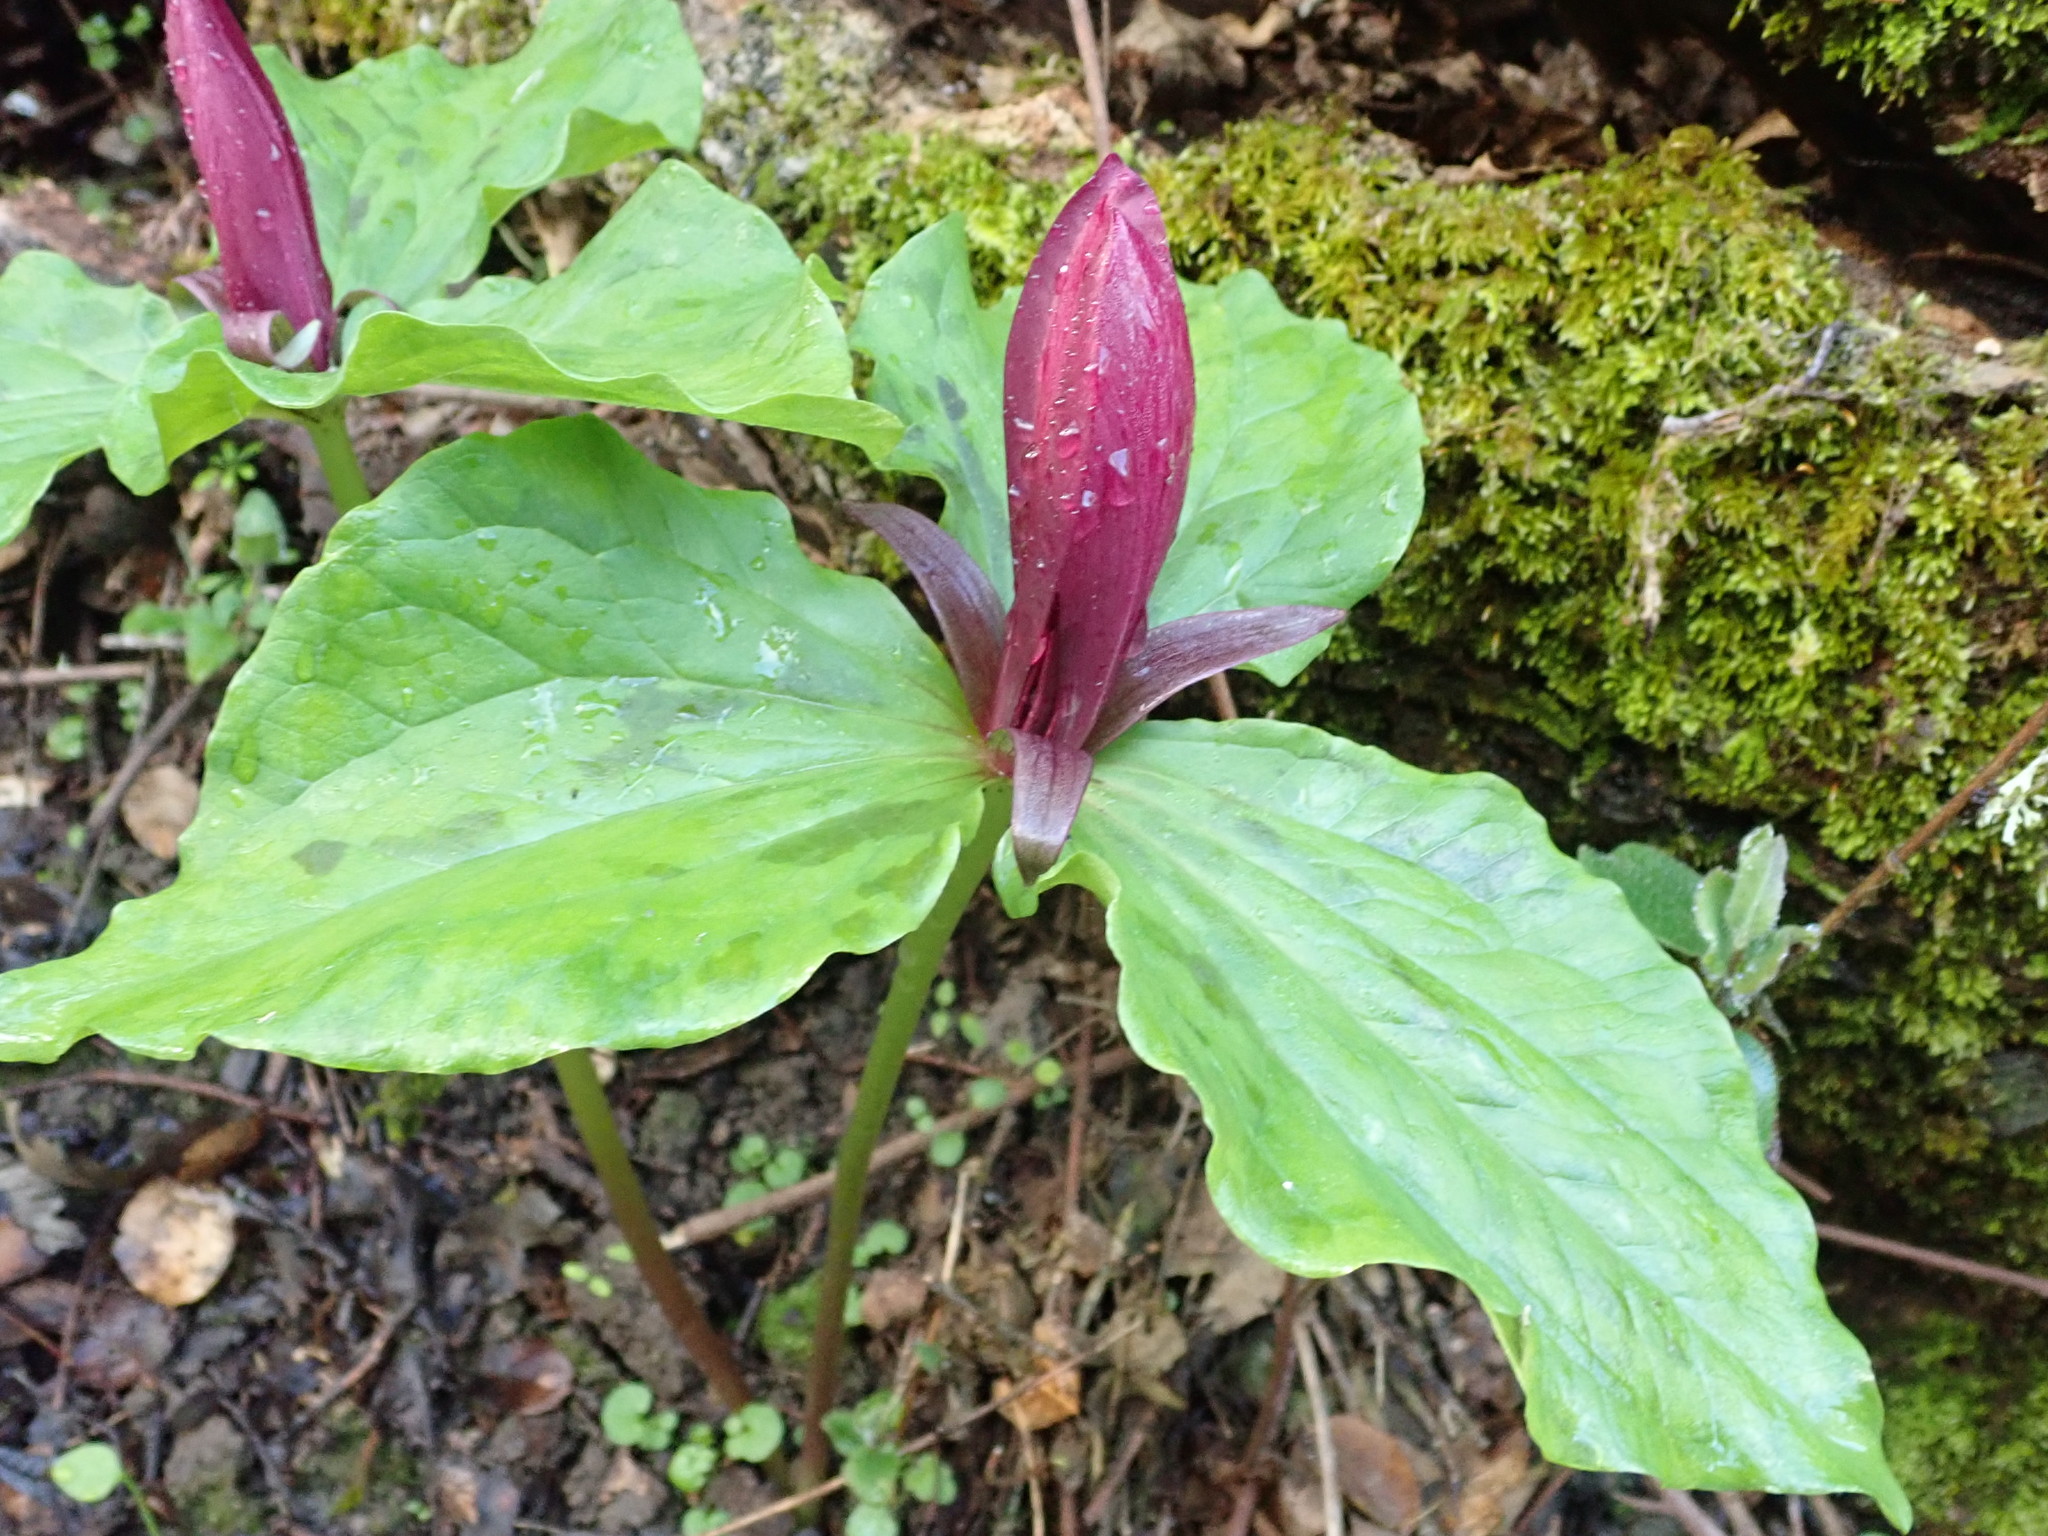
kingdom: Plantae
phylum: Tracheophyta
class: Liliopsida
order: Liliales
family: Melanthiaceae
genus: Trillium
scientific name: Trillium chloropetalum
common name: Giant trillium
